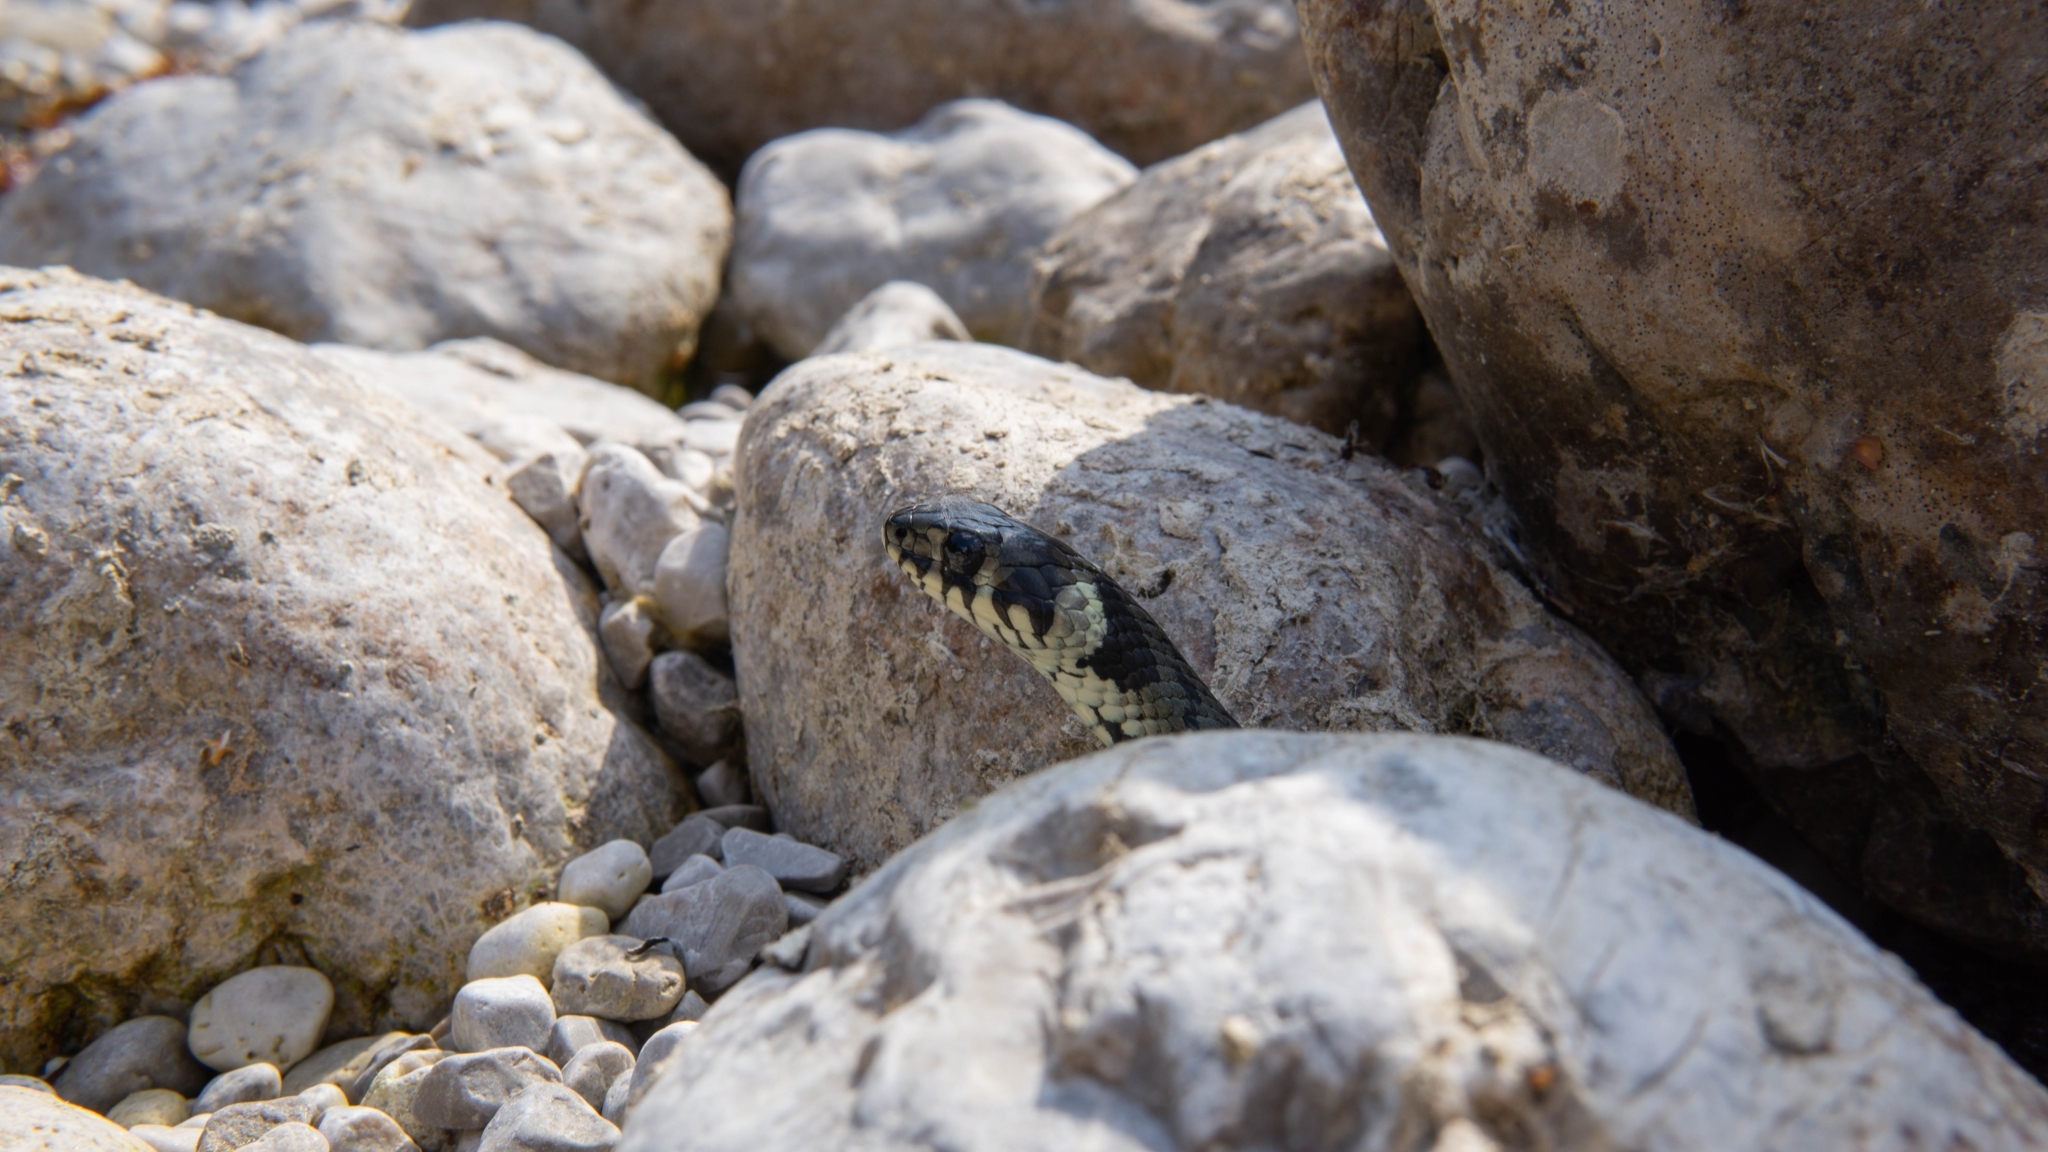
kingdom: Animalia
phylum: Chordata
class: Squamata
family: Colubridae
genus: Natrix
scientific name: Natrix natrix
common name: Grass snake
